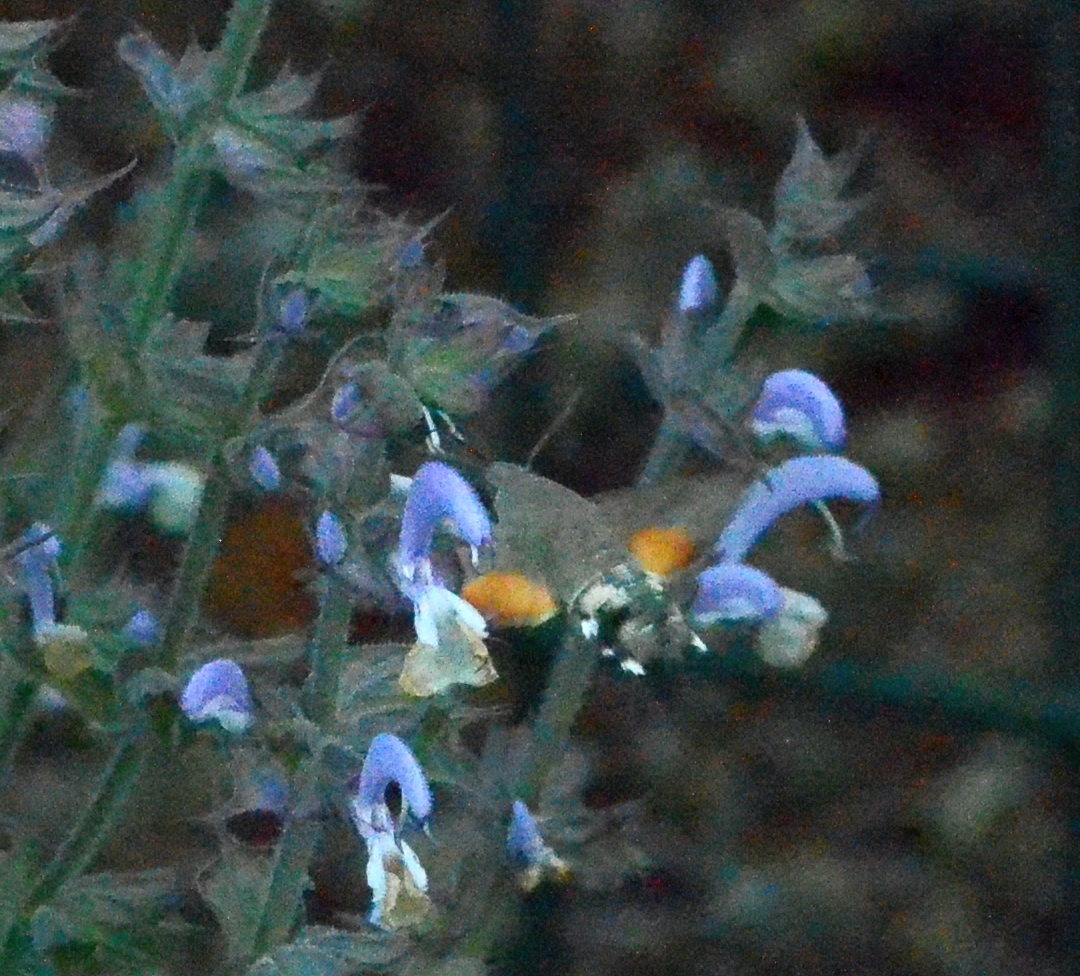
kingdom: Animalia
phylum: Arthropoda
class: Insecta
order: Lepidoptera
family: Sphingidae
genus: Macroglossum
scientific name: Macroglossum stellatarum
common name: Humming-bird hawk-moth
